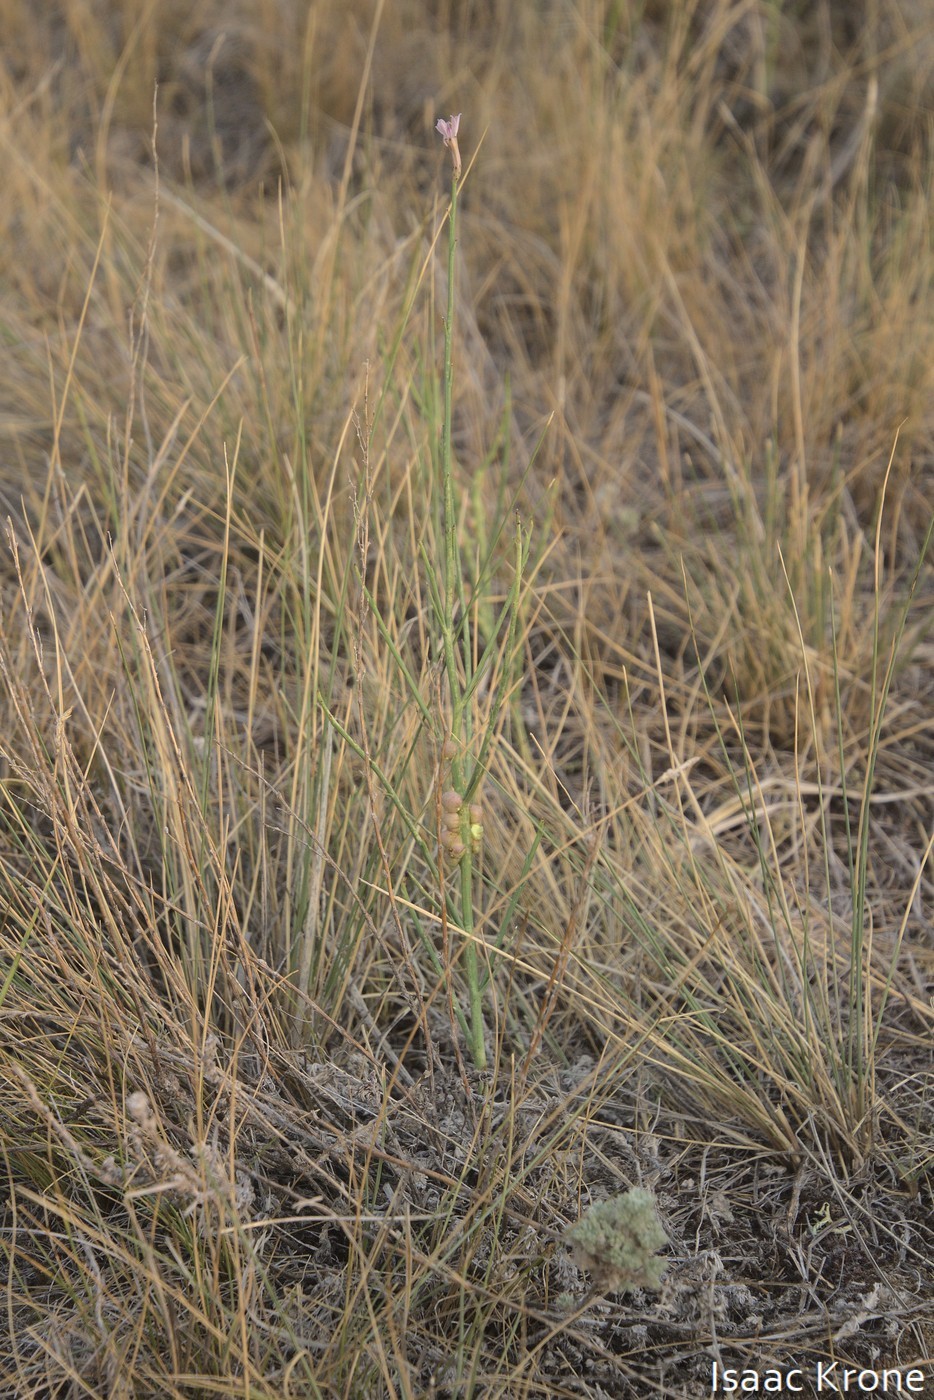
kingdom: Animalia
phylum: Arthropoda
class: Insecta
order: Hymenoptera
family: Cynipidae
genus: Antistrophus
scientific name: Antistrophus
